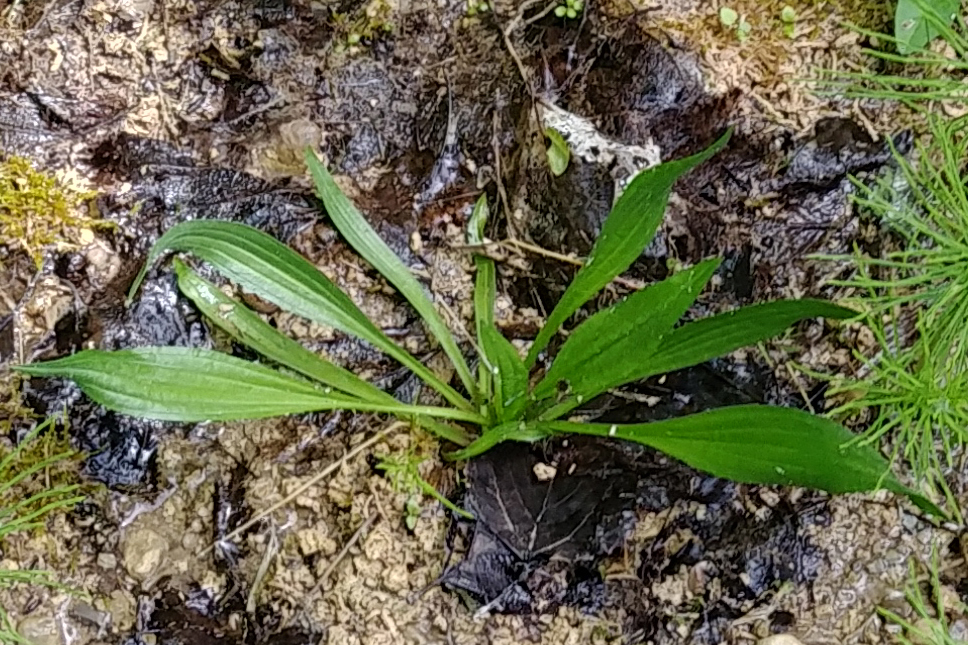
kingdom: Plantae
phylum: Tracheophyta
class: Magnoliopsida
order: Lamiales
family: Plantaginaceae
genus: Plantago
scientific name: Plantago lanceolata
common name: Ribwort plantain
